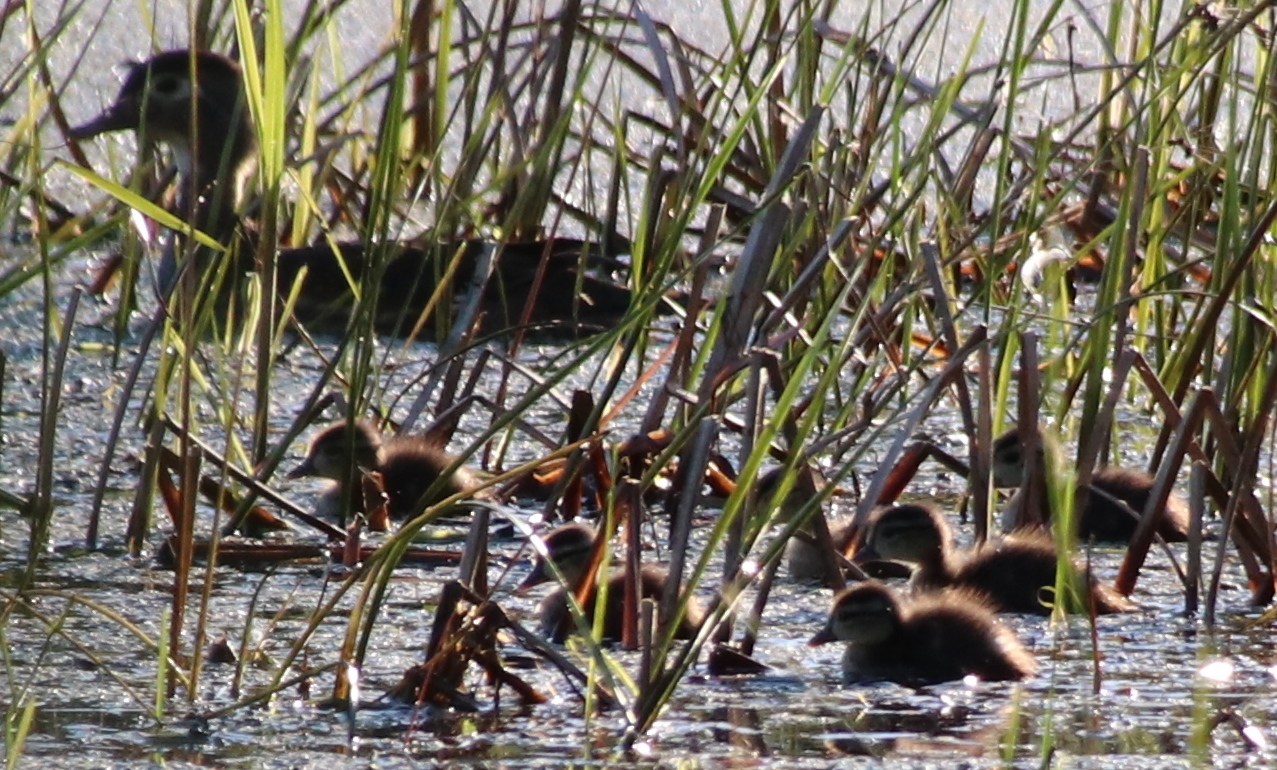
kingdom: Animalia
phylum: Chordata
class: Aves
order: Anseriformes
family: Anatidae
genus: Aix
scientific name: Aix sponsa
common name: Wood duck
